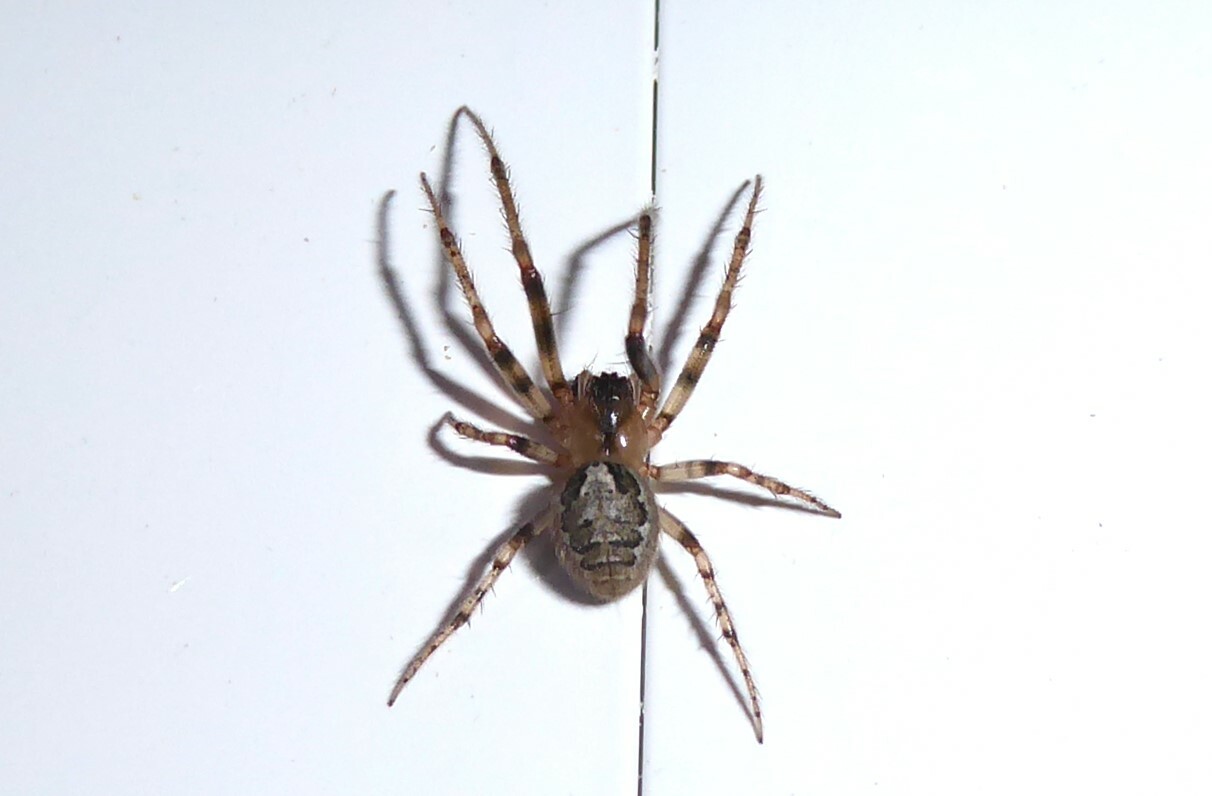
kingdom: Animalia
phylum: Arthropoda
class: Arachnida
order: Araneae
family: Araneidae
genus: Zygiella
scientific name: Zygiella x-notata
